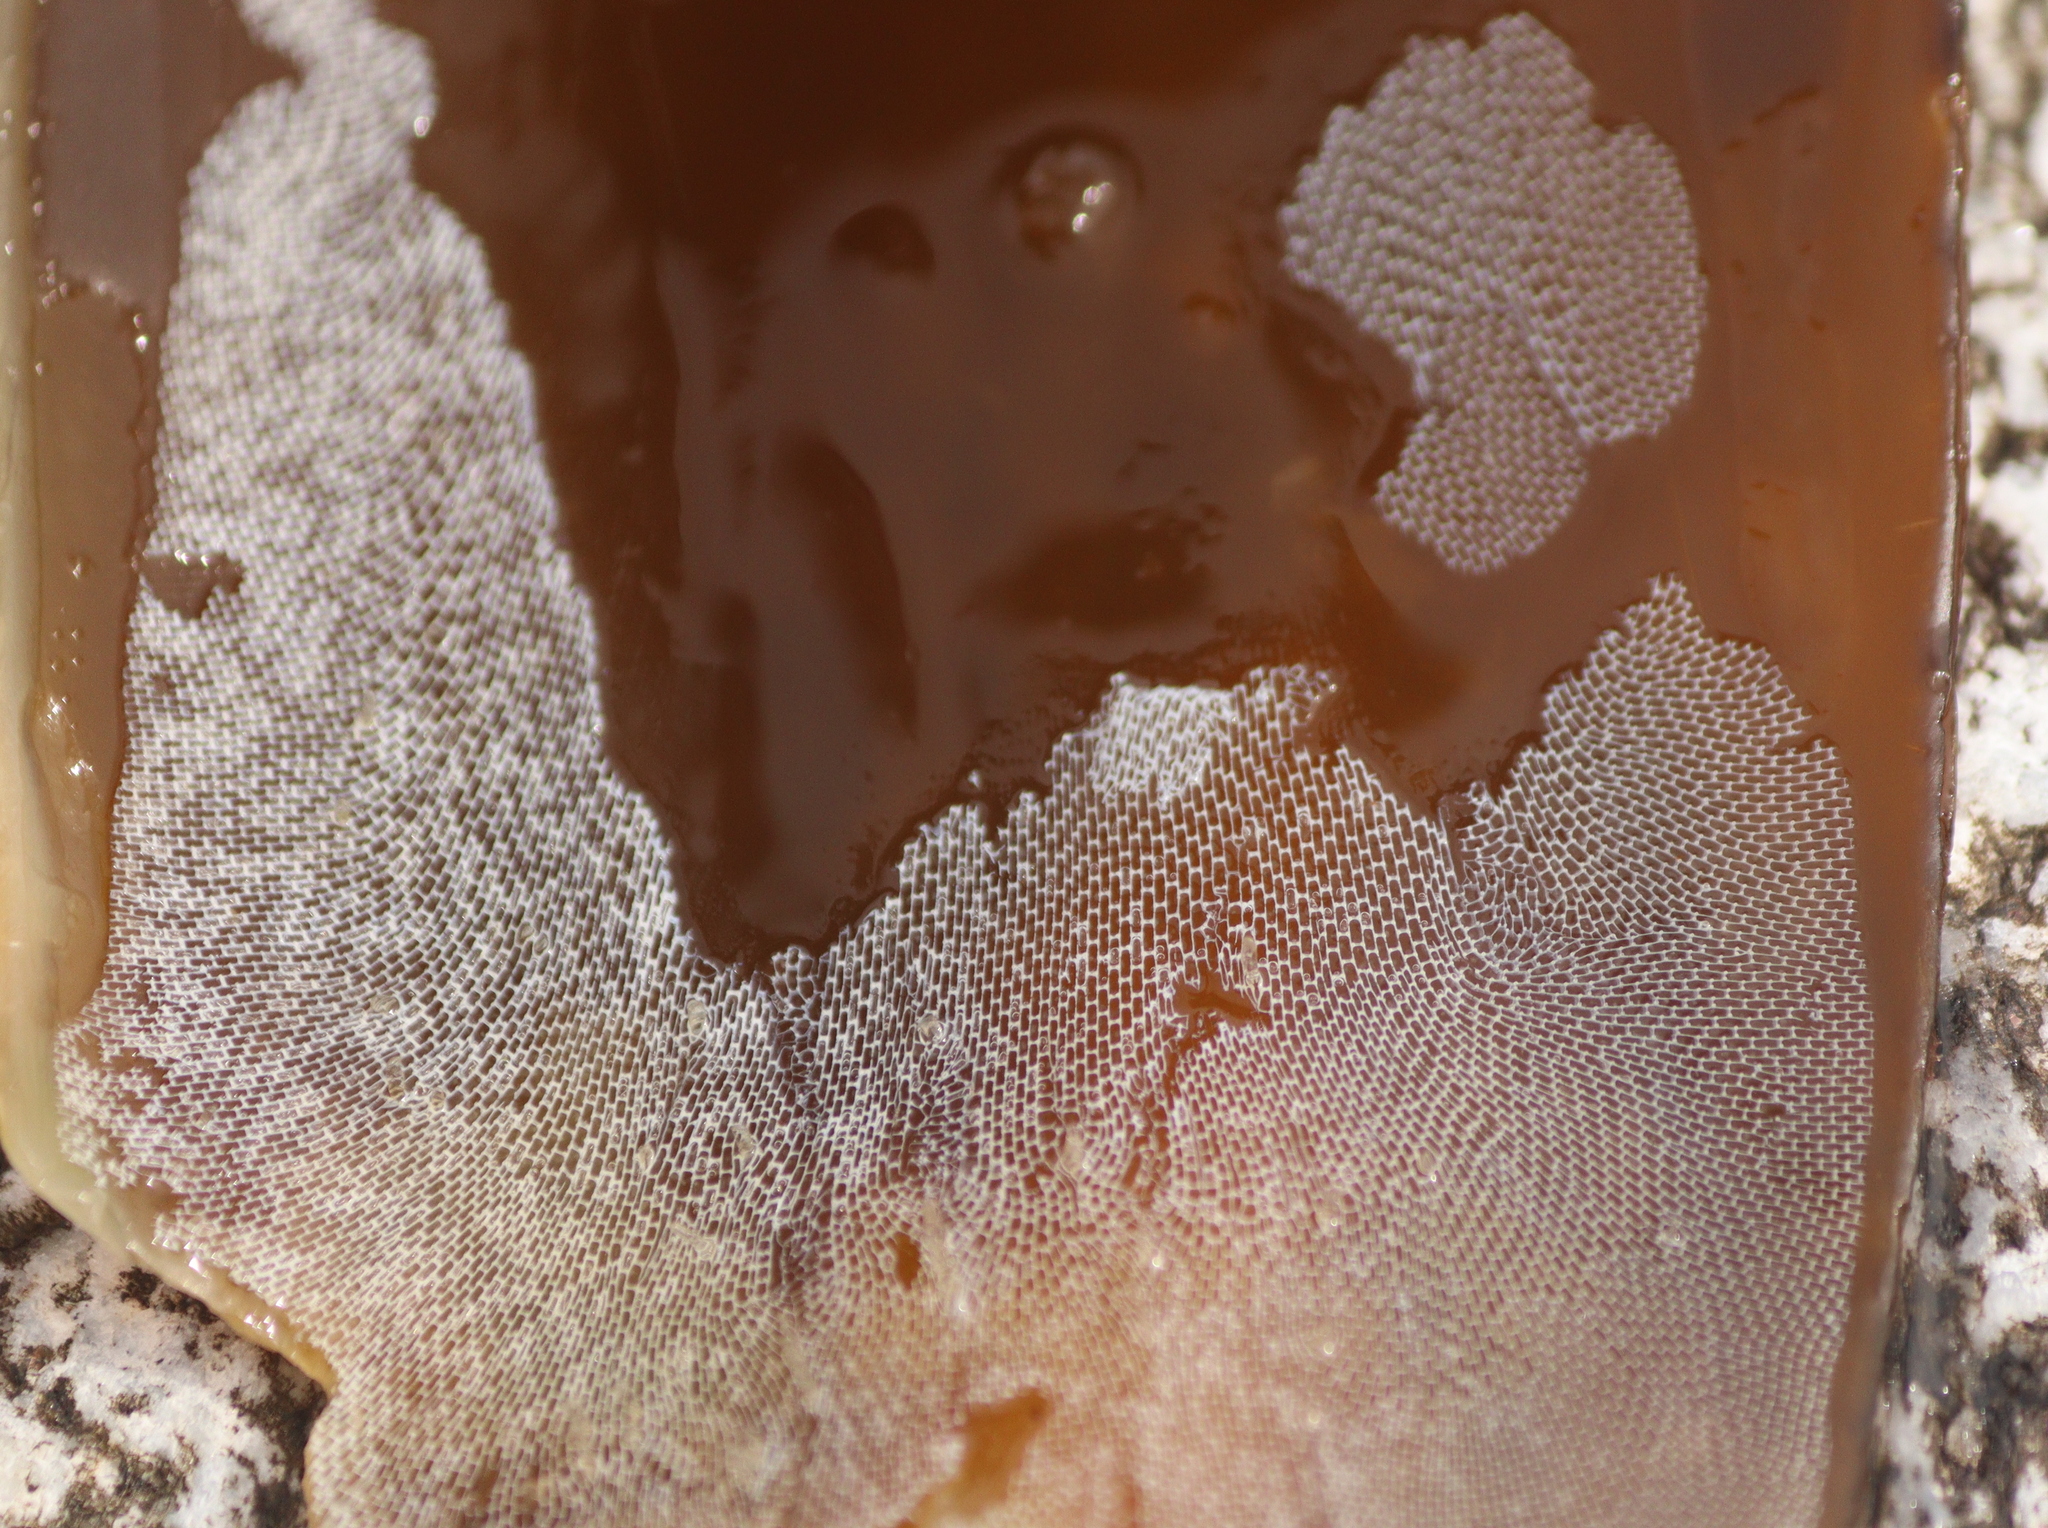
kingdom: Animalia
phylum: Bryozoa
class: Gymnolaemata
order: Cheilostomatida
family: Membraniporidae
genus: Membranipora
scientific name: Membranipora membranacea
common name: Sea mat
